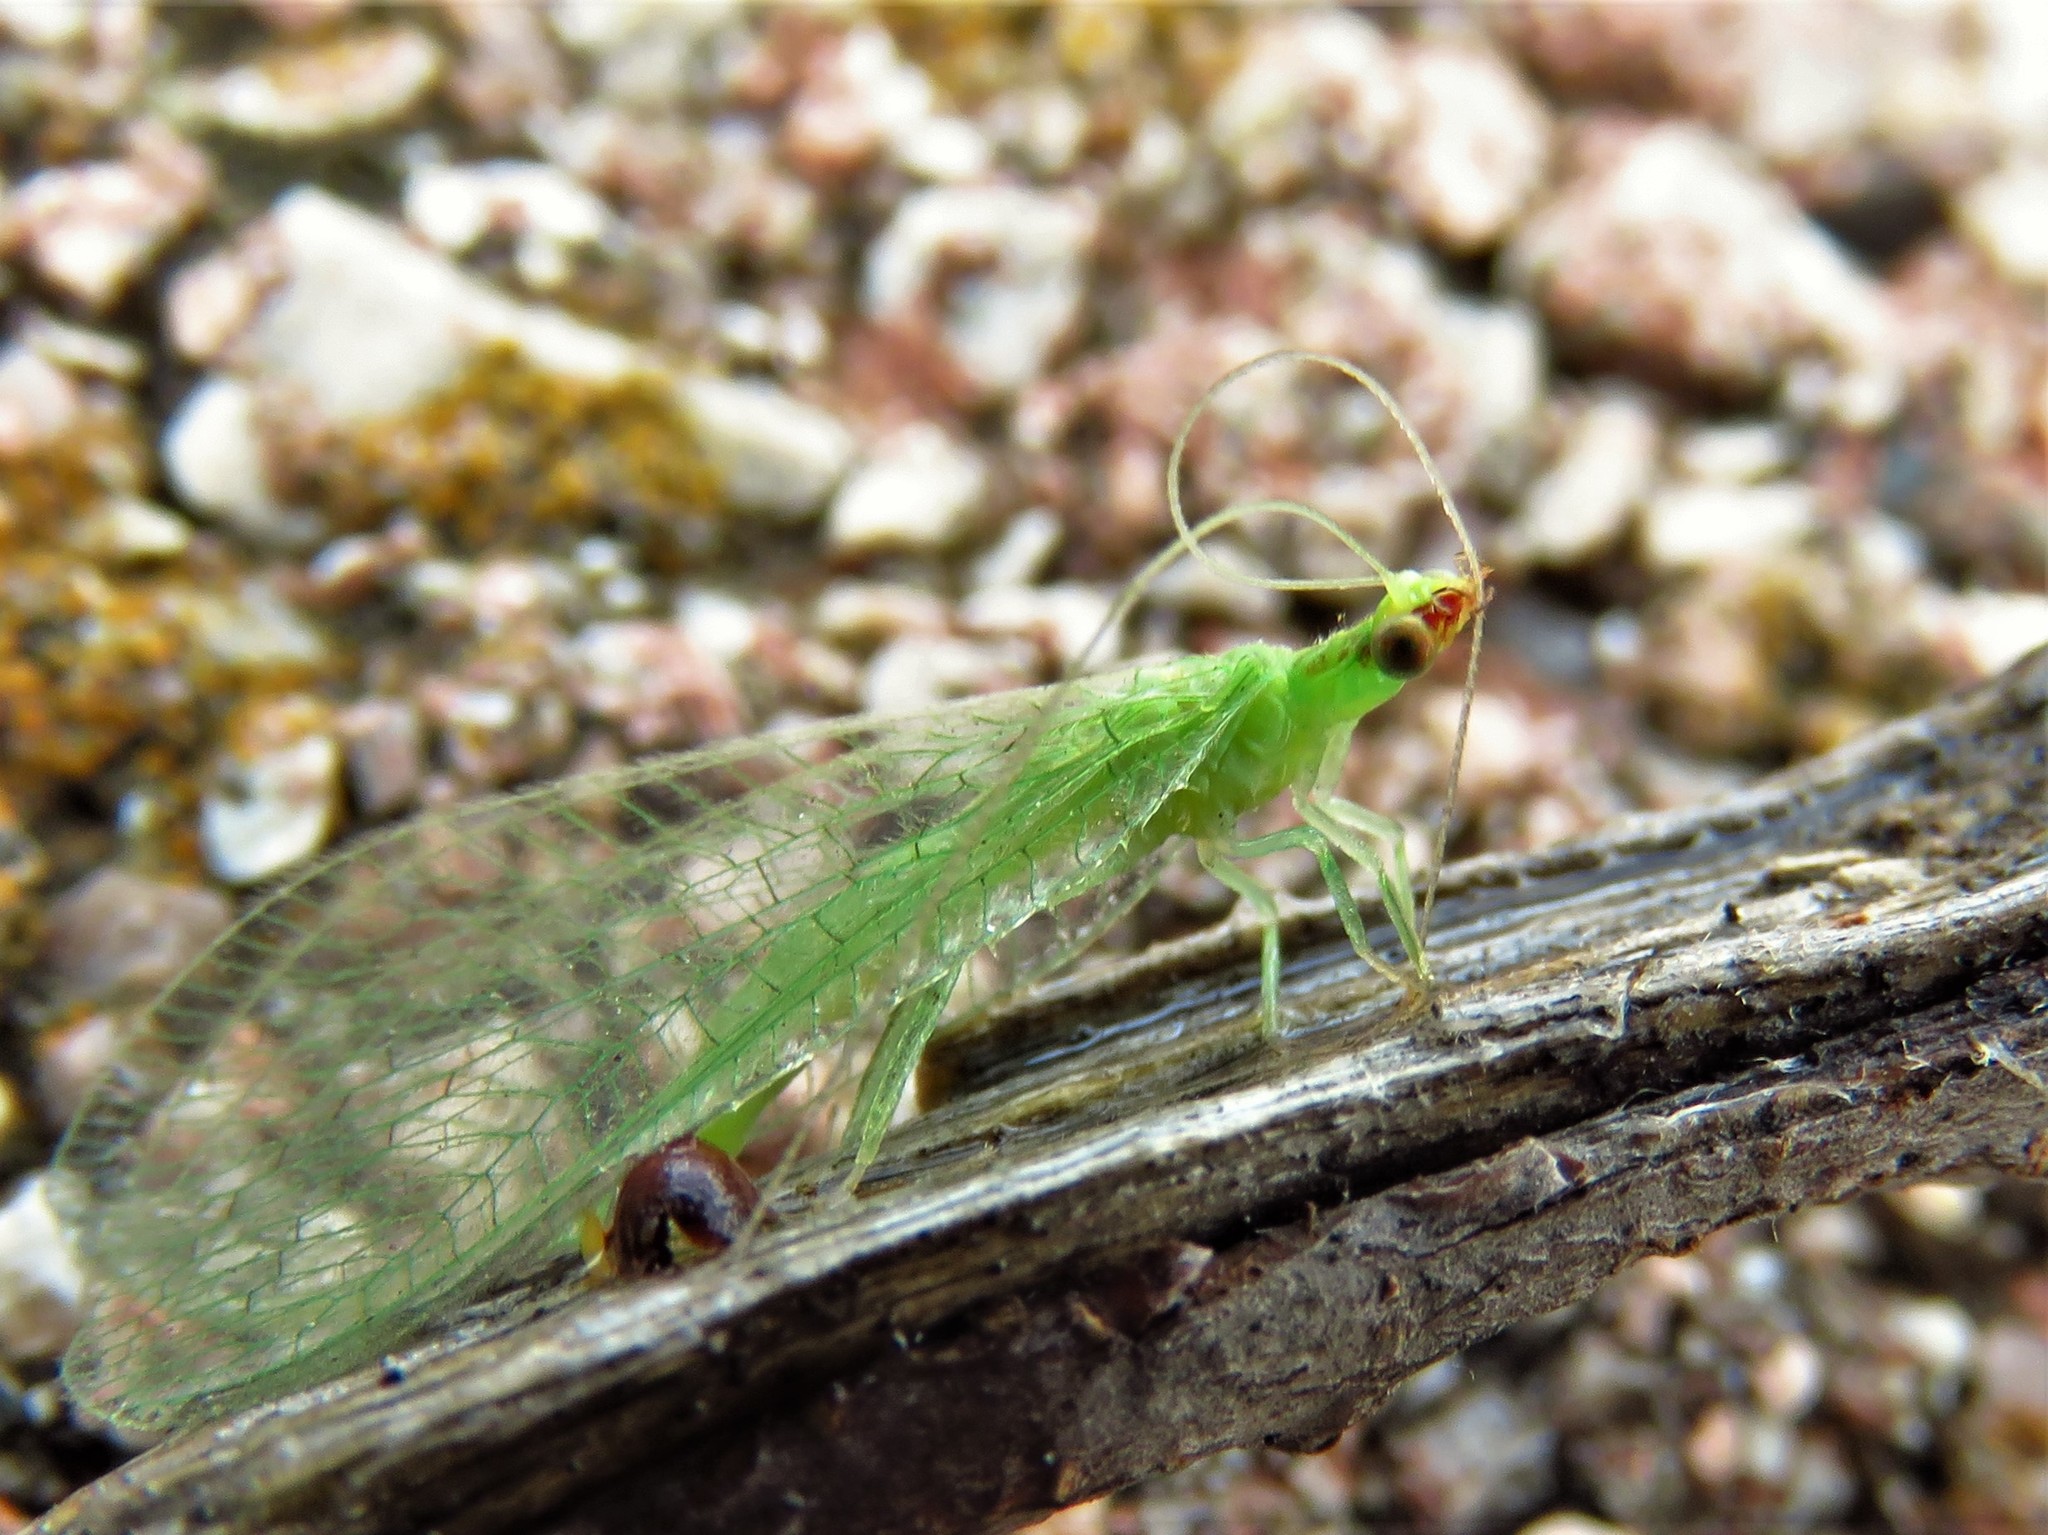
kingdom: Animalia
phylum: Arthropoda
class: Insecta
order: Neuroptera
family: Chrysopidae
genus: Chrysoperla
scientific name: Chrysoperla rufilabris
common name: Red-lipped green lacewing
